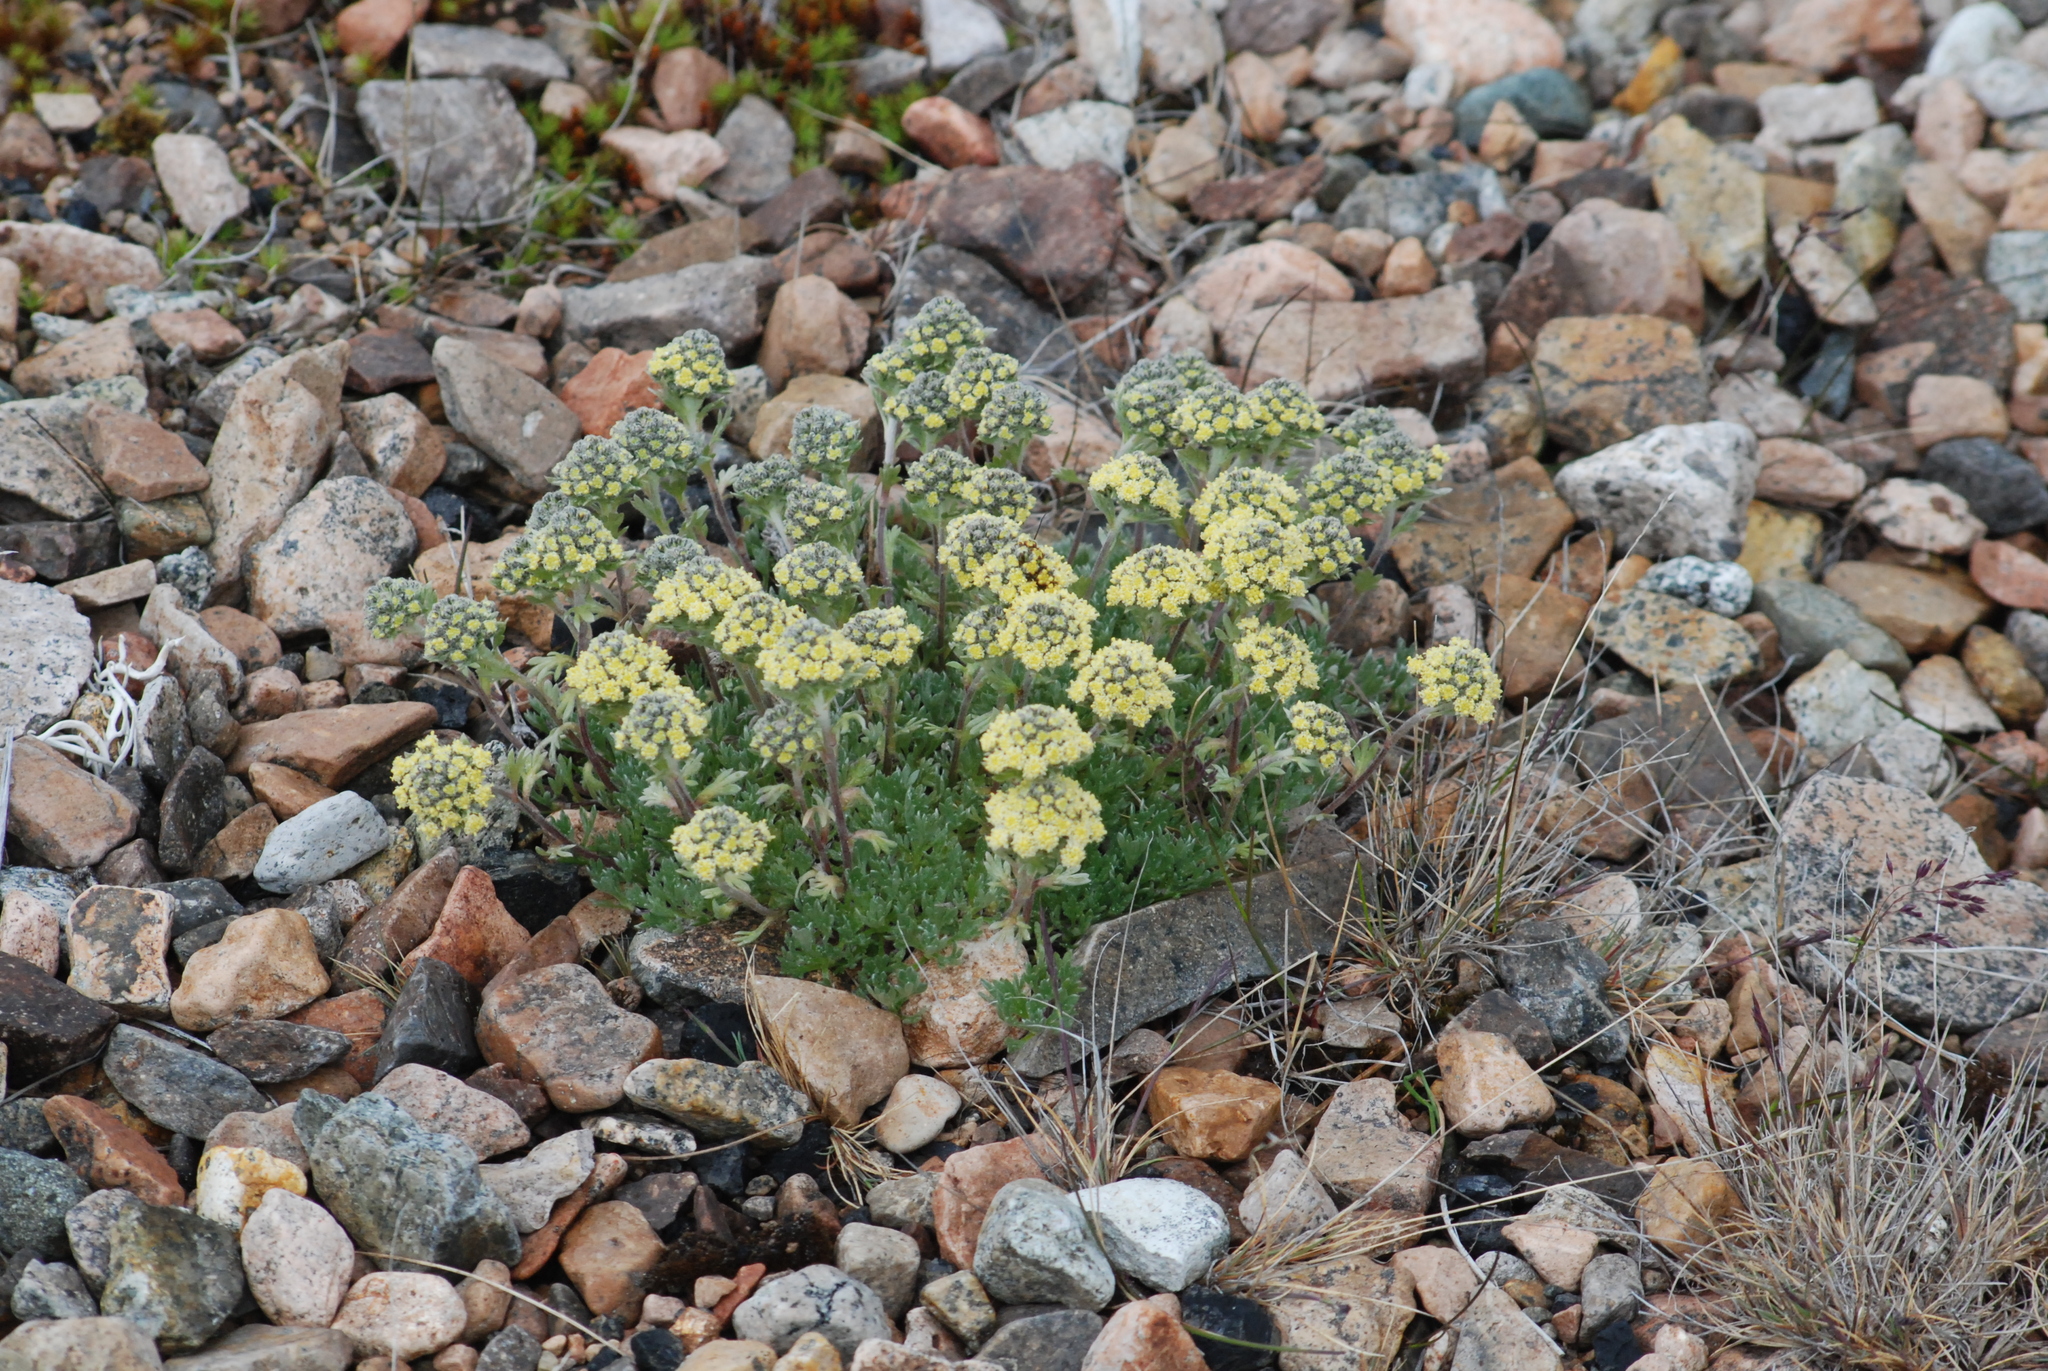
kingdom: Plantae
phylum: Tracheophyta
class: Magnoliopsida
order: Asterales
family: Asteraceae
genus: Artemisia
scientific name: Artemisia glomerata
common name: Pacific alpine wormwood
